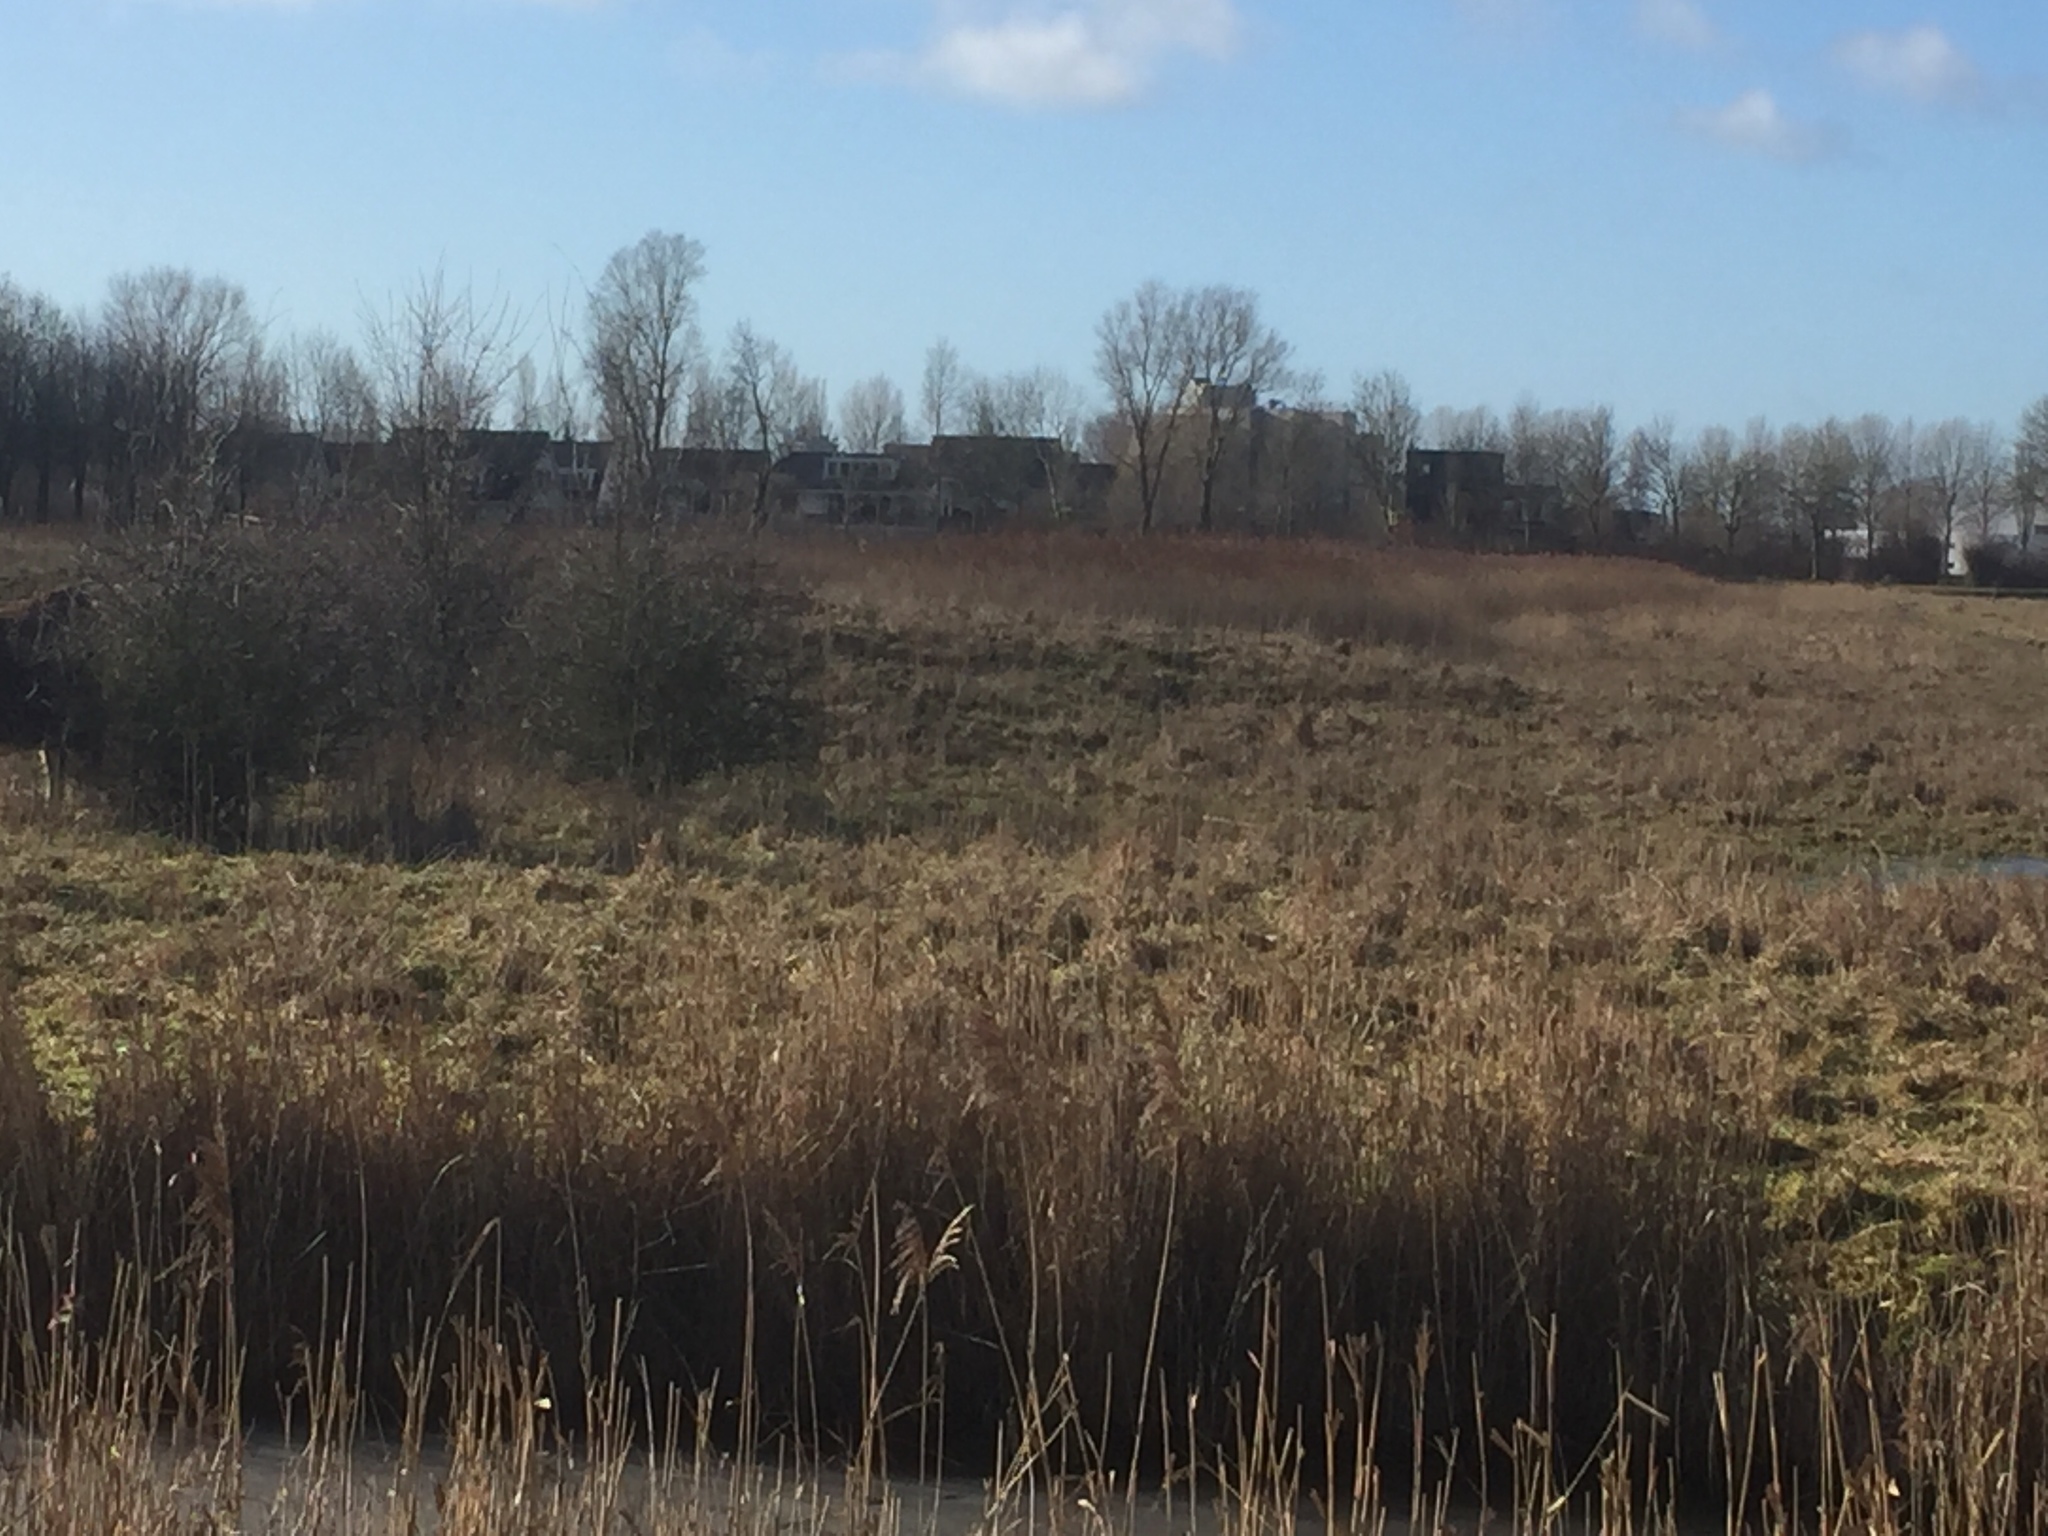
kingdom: Plantae
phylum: Tracheophyta
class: Liliopsida
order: Poales
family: Poaceae
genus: Phragmites
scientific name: Phragmites australis
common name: Common reed
